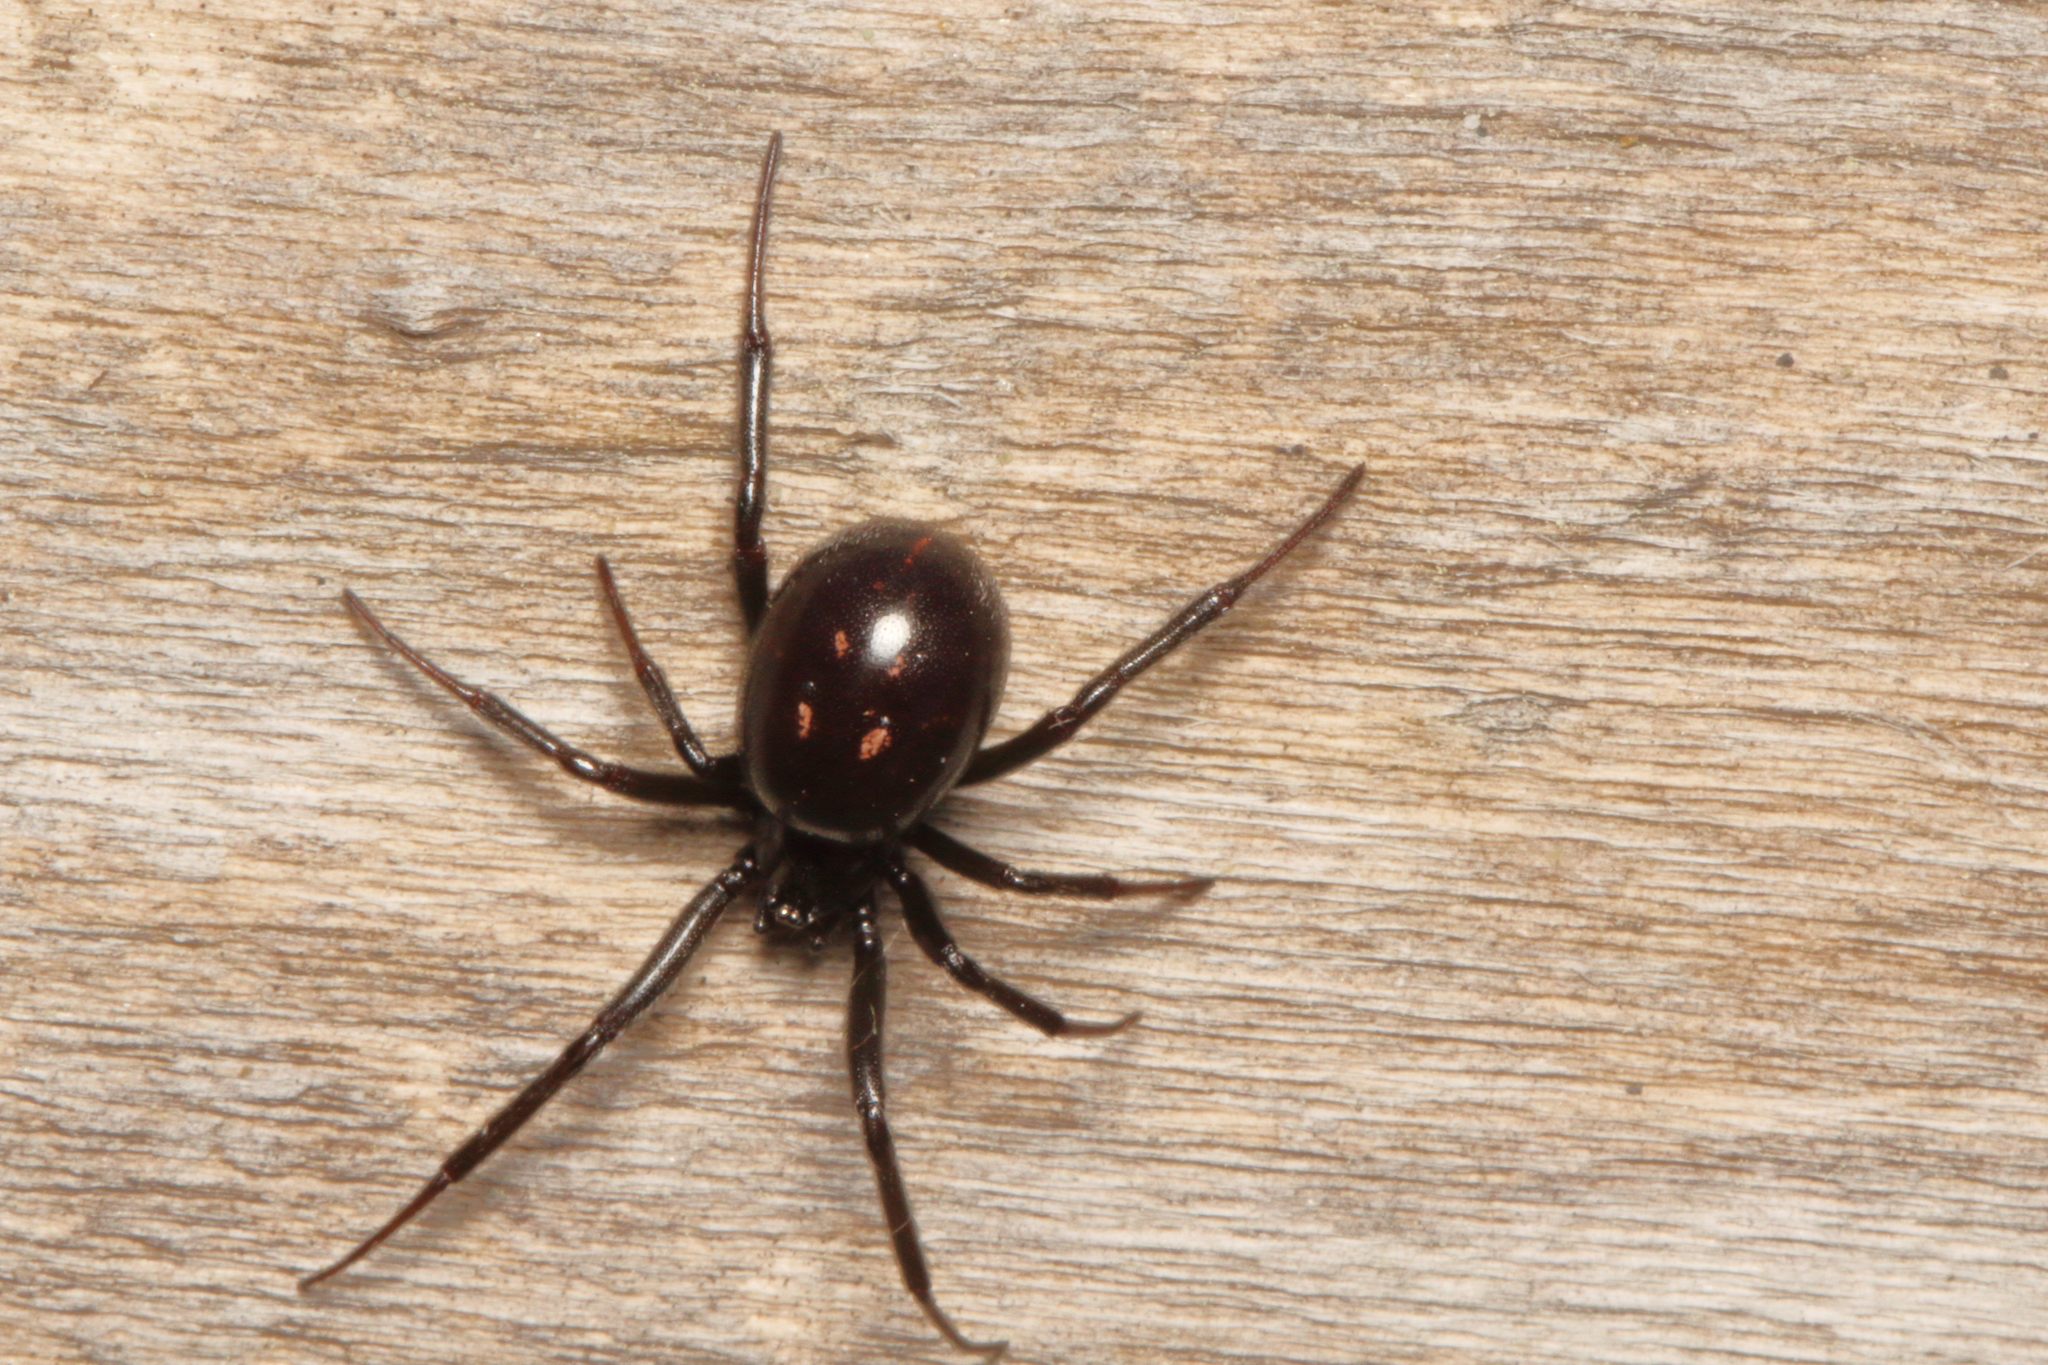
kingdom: Animalia
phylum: Arthropoda
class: Arachnida
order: Araneae
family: Theridiidae
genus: Steatoda
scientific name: Steatoda capensis
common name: Cobweb weaver
